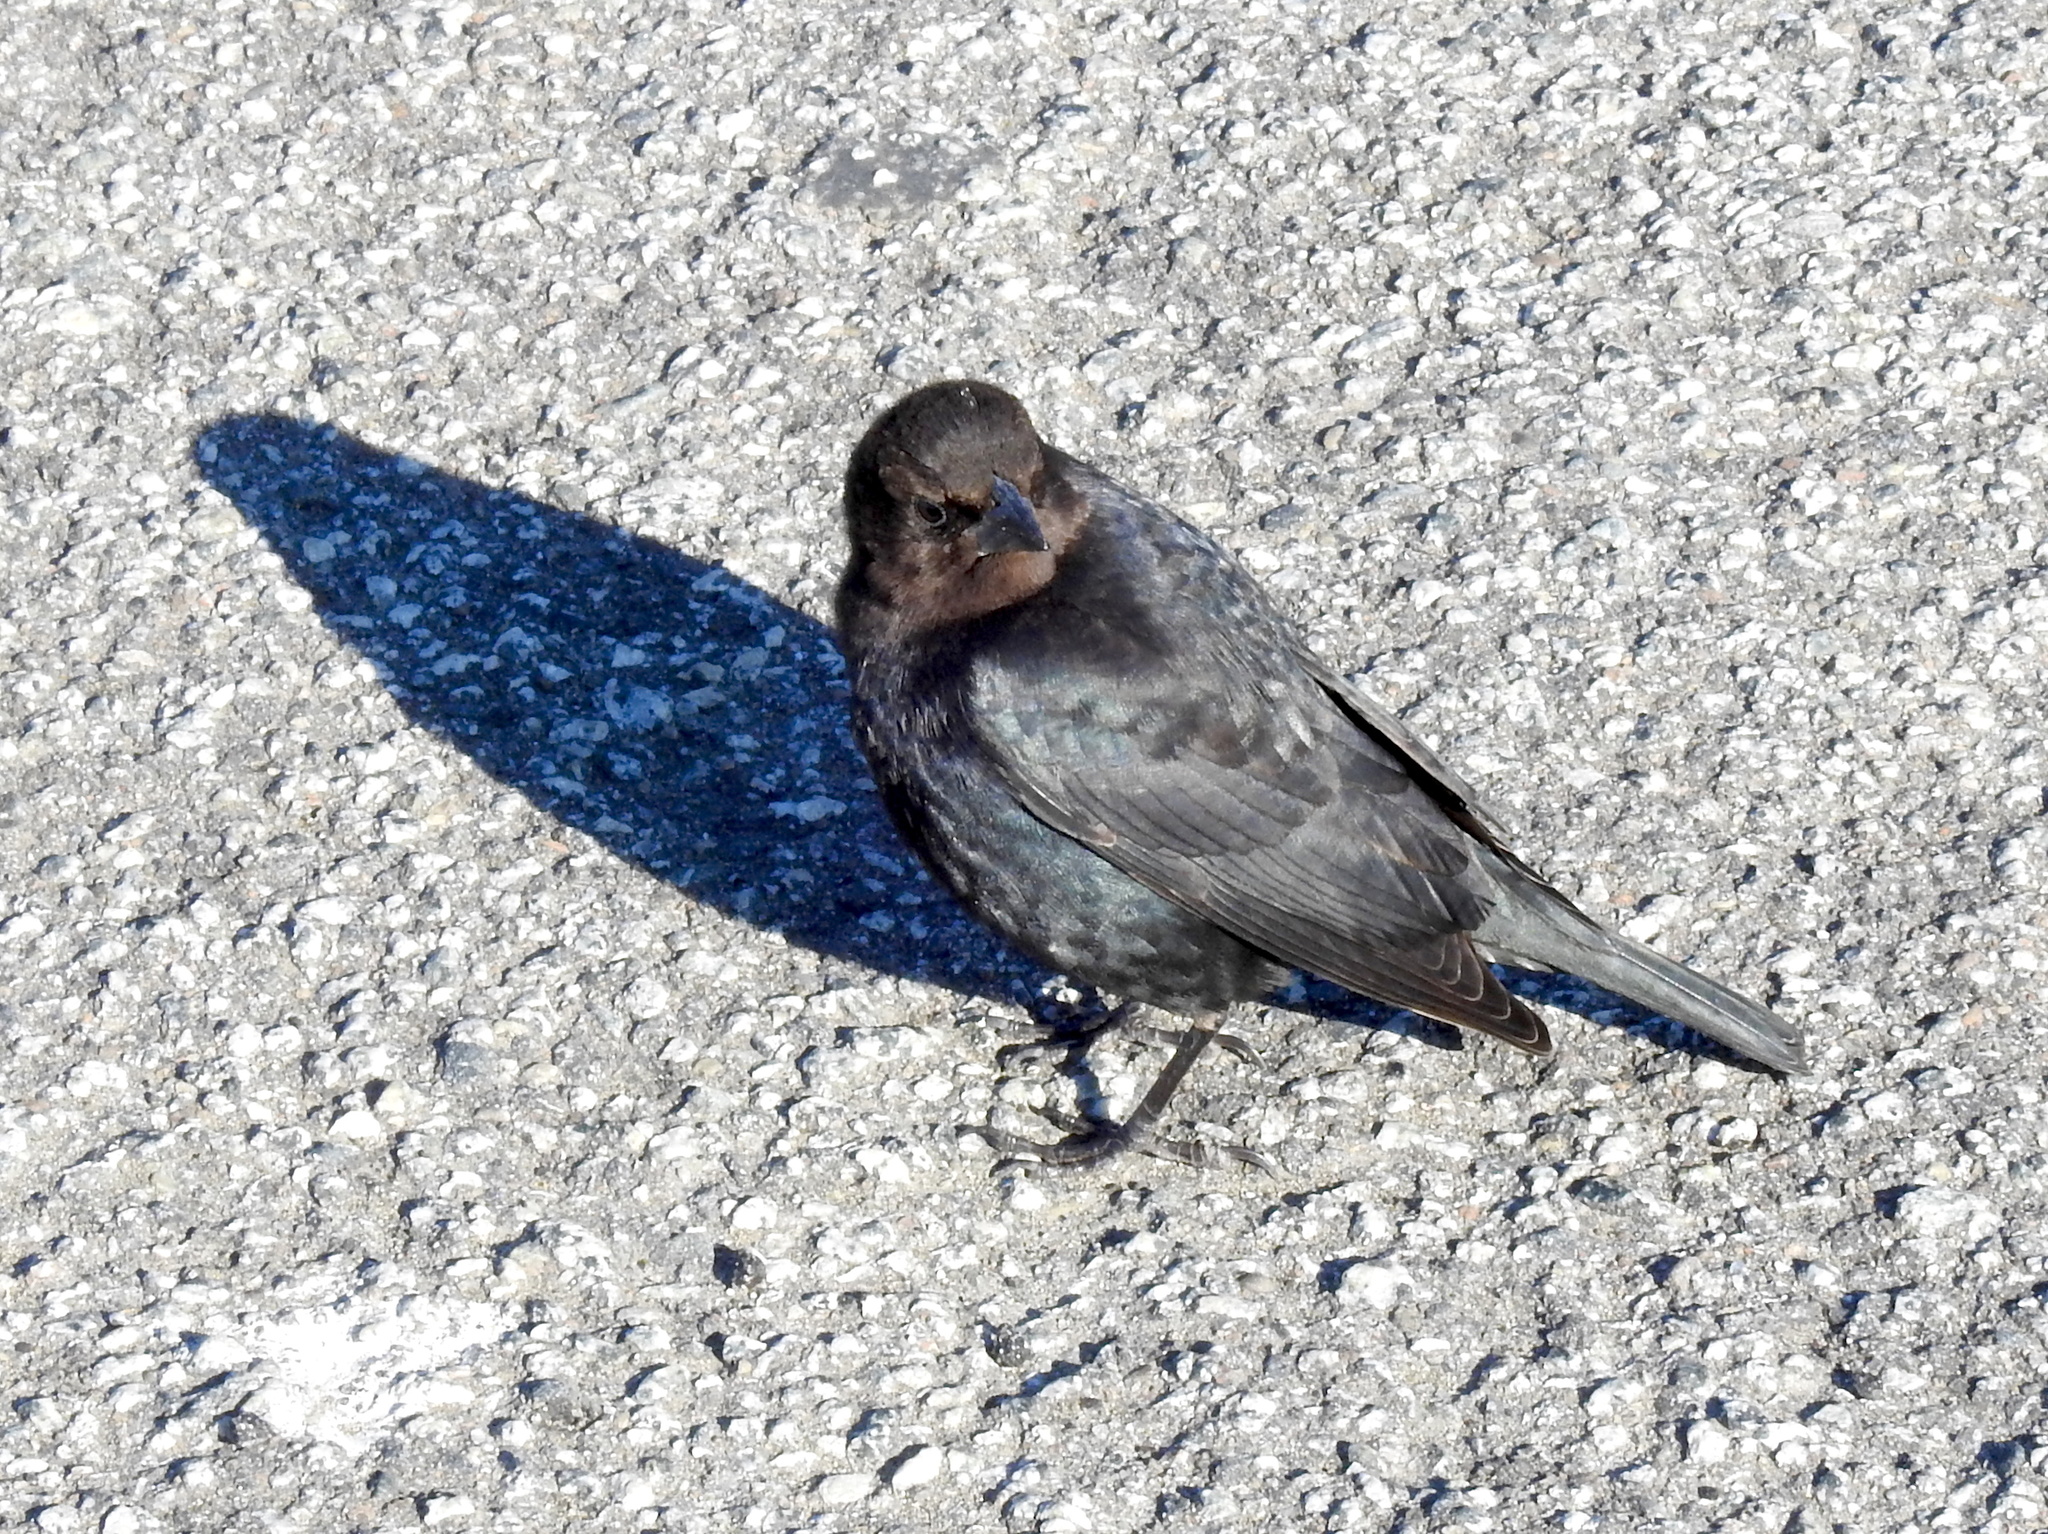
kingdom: Animalia
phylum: Chordata
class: Aves
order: Passeriformes
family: Icteridae
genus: Molothrus
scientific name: Molothrus ater
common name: Brown-headed cowbird
